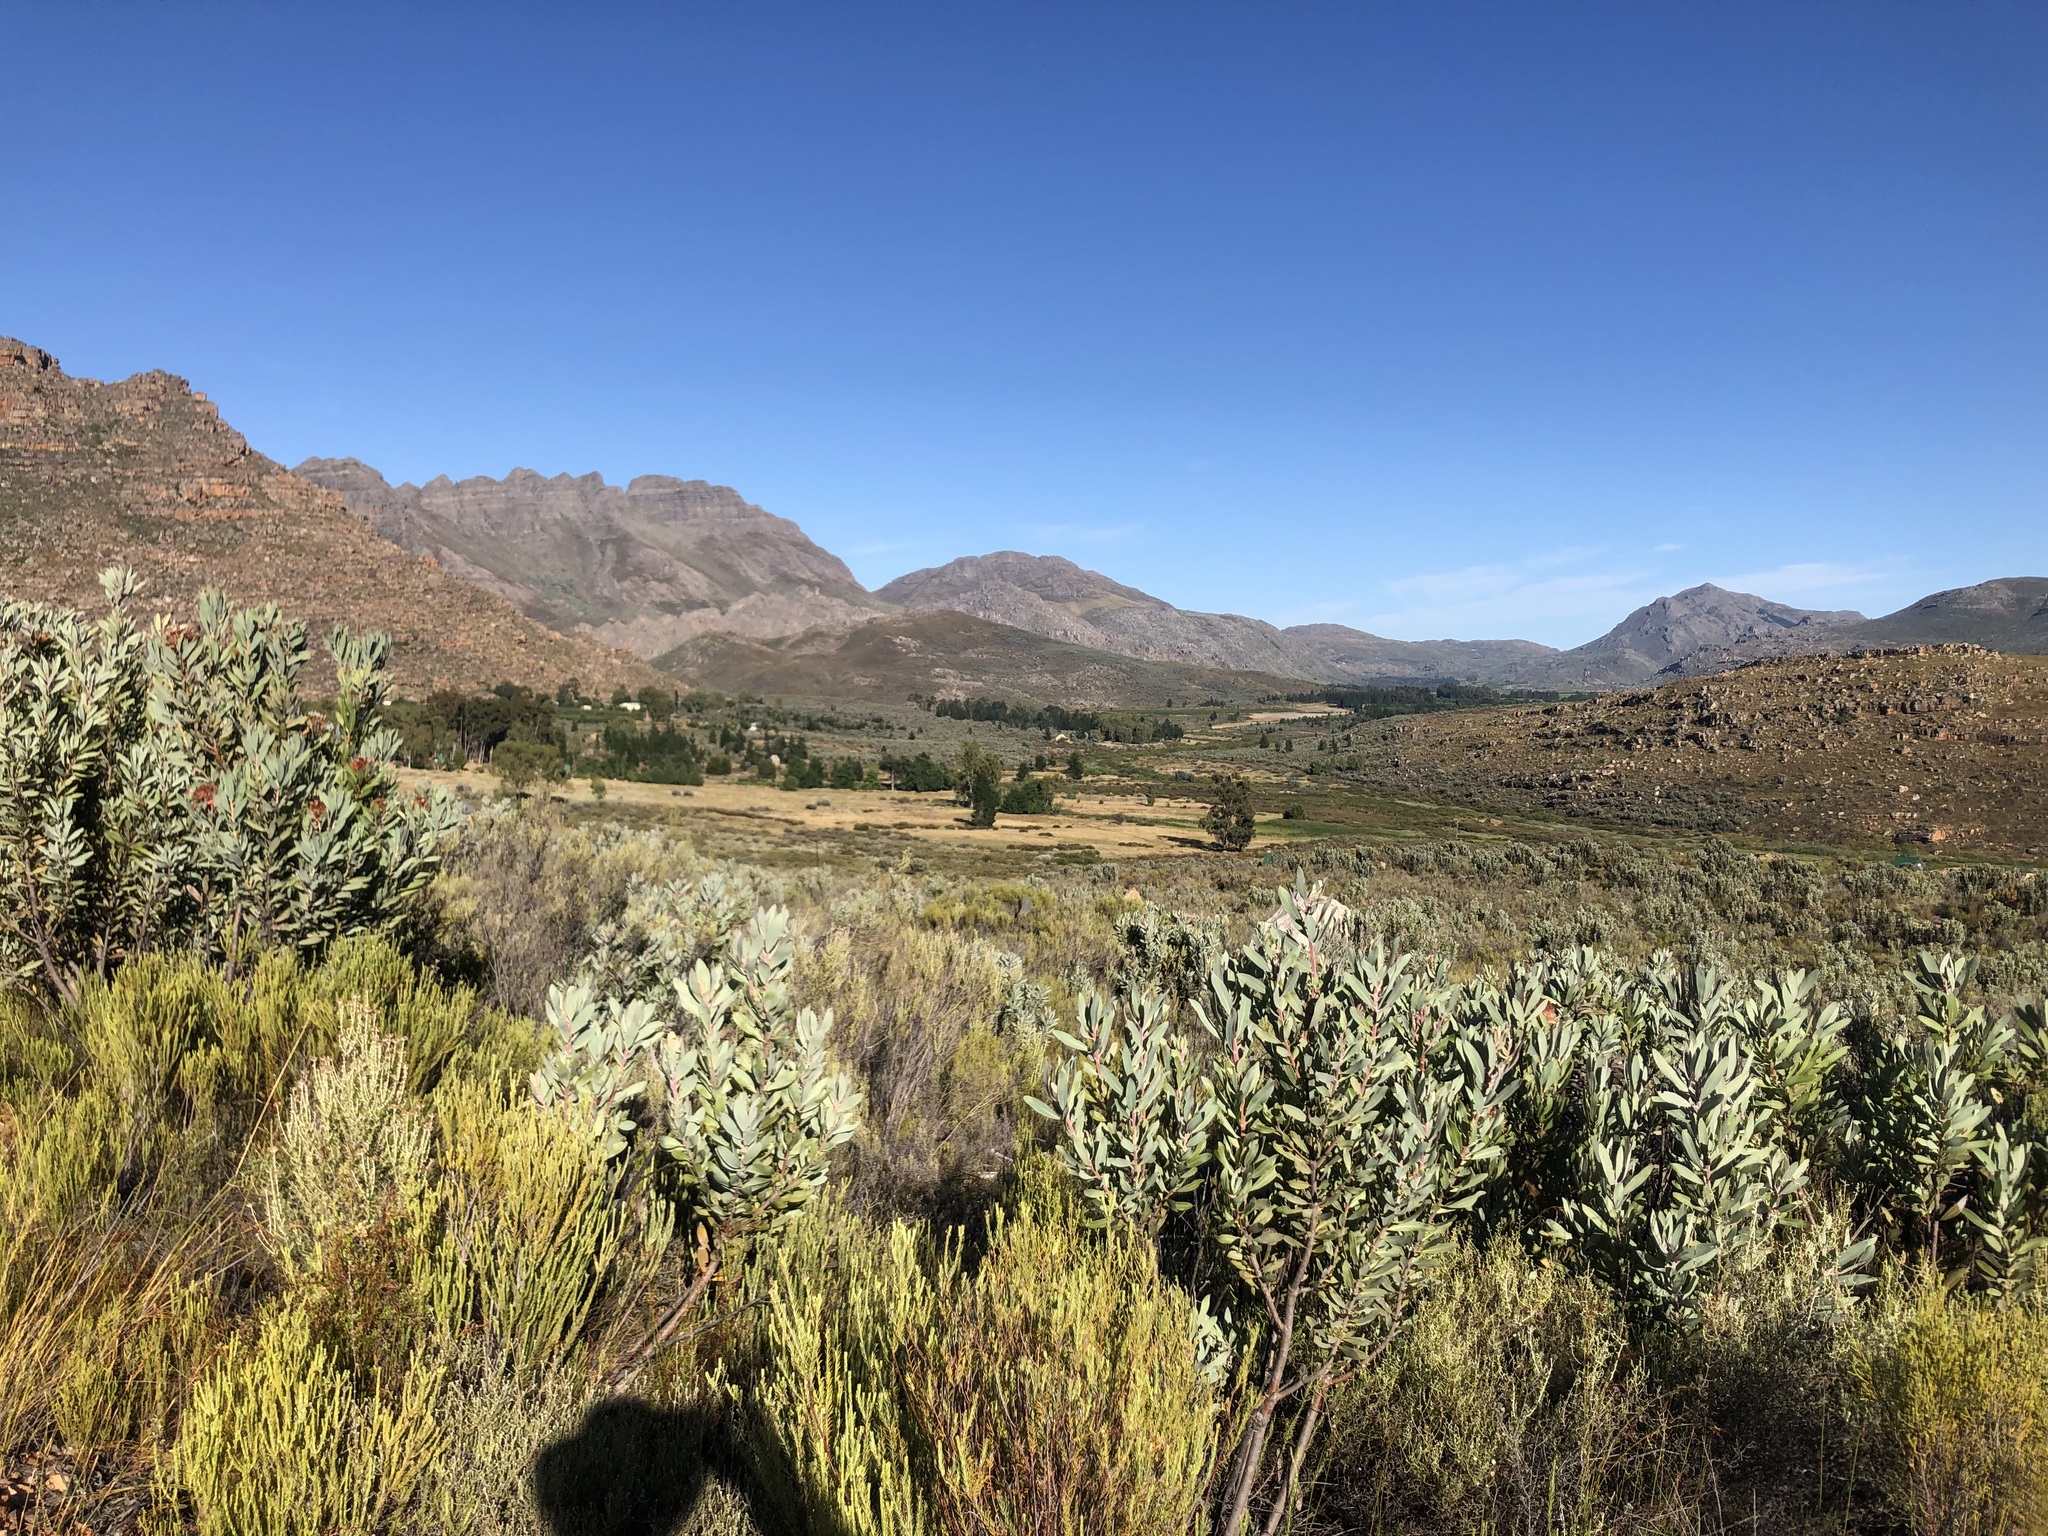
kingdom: Plantae
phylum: Tracheophyta
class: Magnoliopsida
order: Proteales
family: Proteaceae
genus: Protea
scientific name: Protea laurifolia
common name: Grey-leaf sugarbsh
